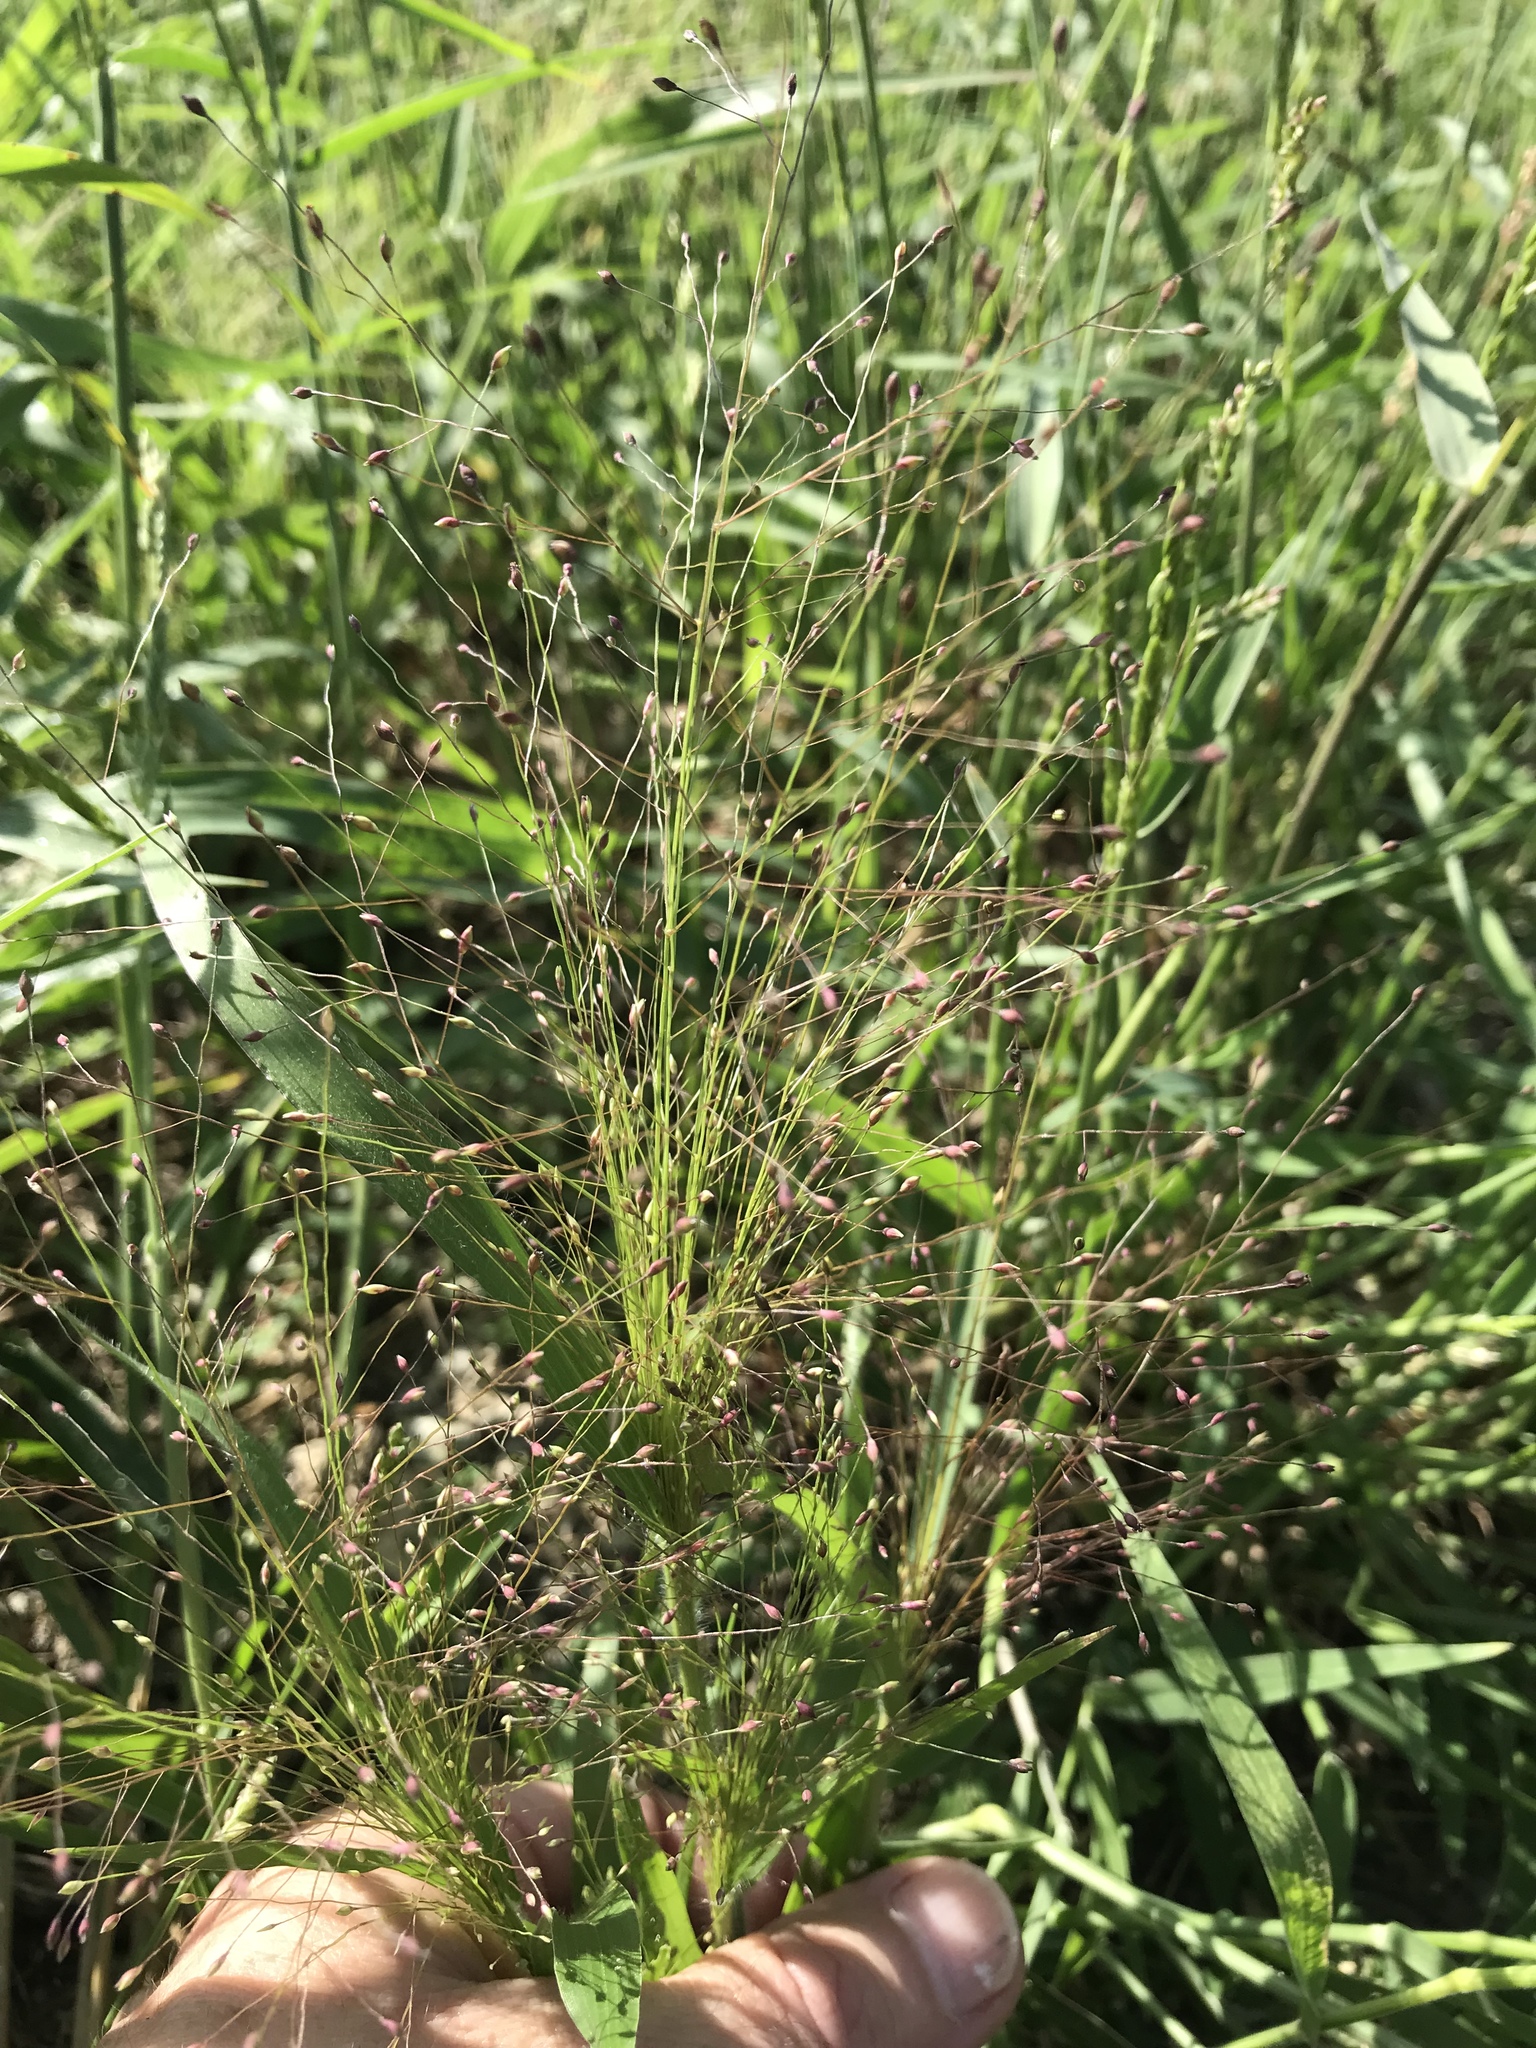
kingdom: Plantae
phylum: Tracheophyta
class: Liliopsida
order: Poales
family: Poaceae
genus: Panicum
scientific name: Panicum capillare
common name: Witch-grass
